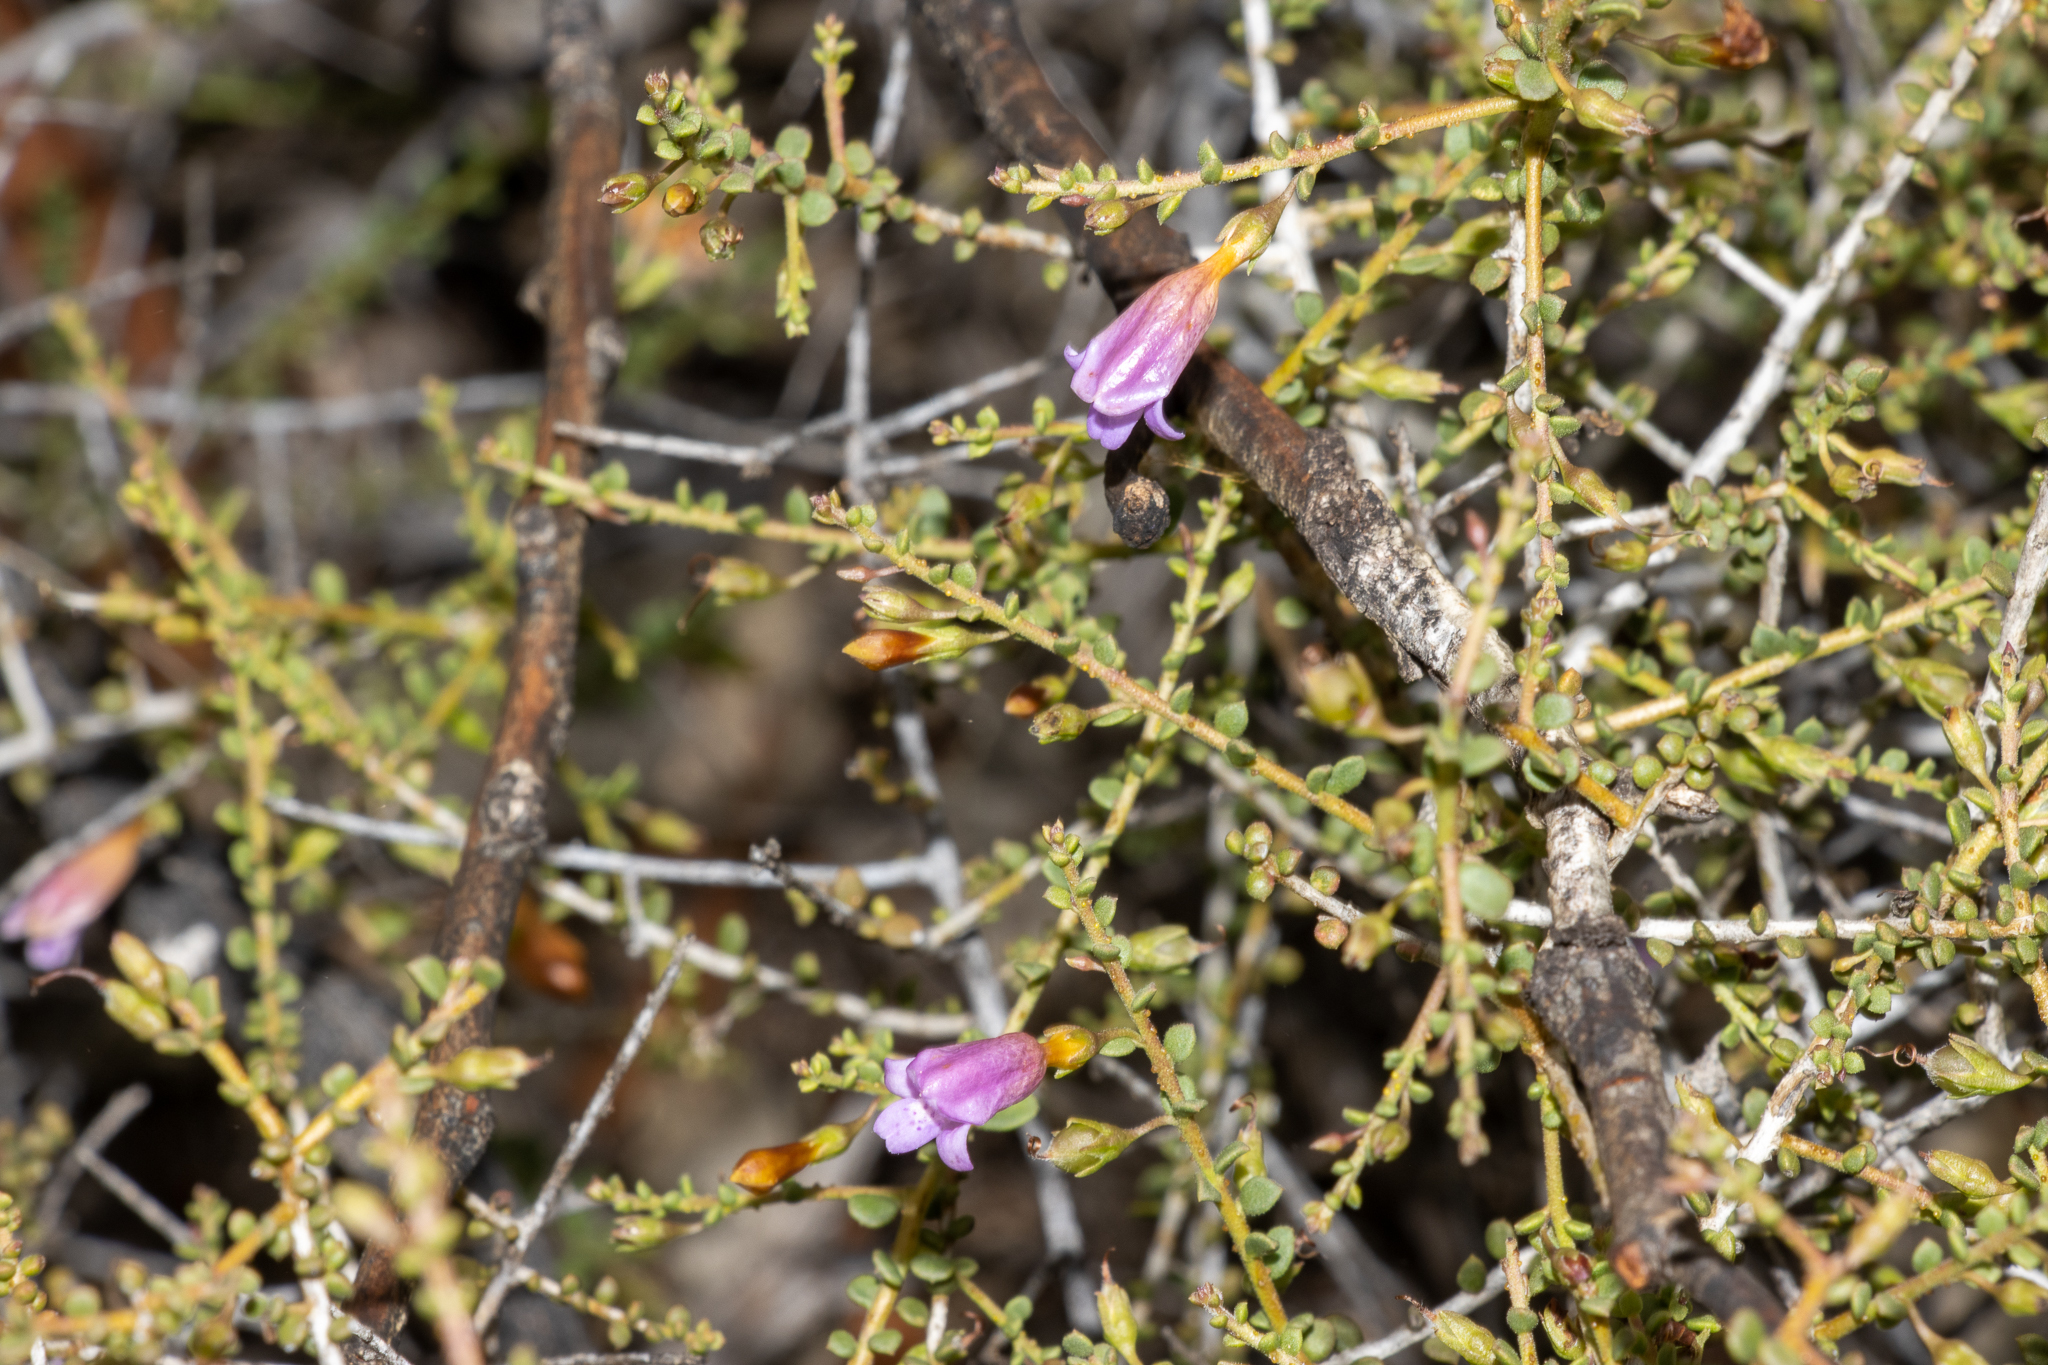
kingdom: Plantae
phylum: Tracheophyta
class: Magnoliopsida
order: Lamiales
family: Scrophulariaceae
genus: Eremophila
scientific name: Eremophila parvifolia
